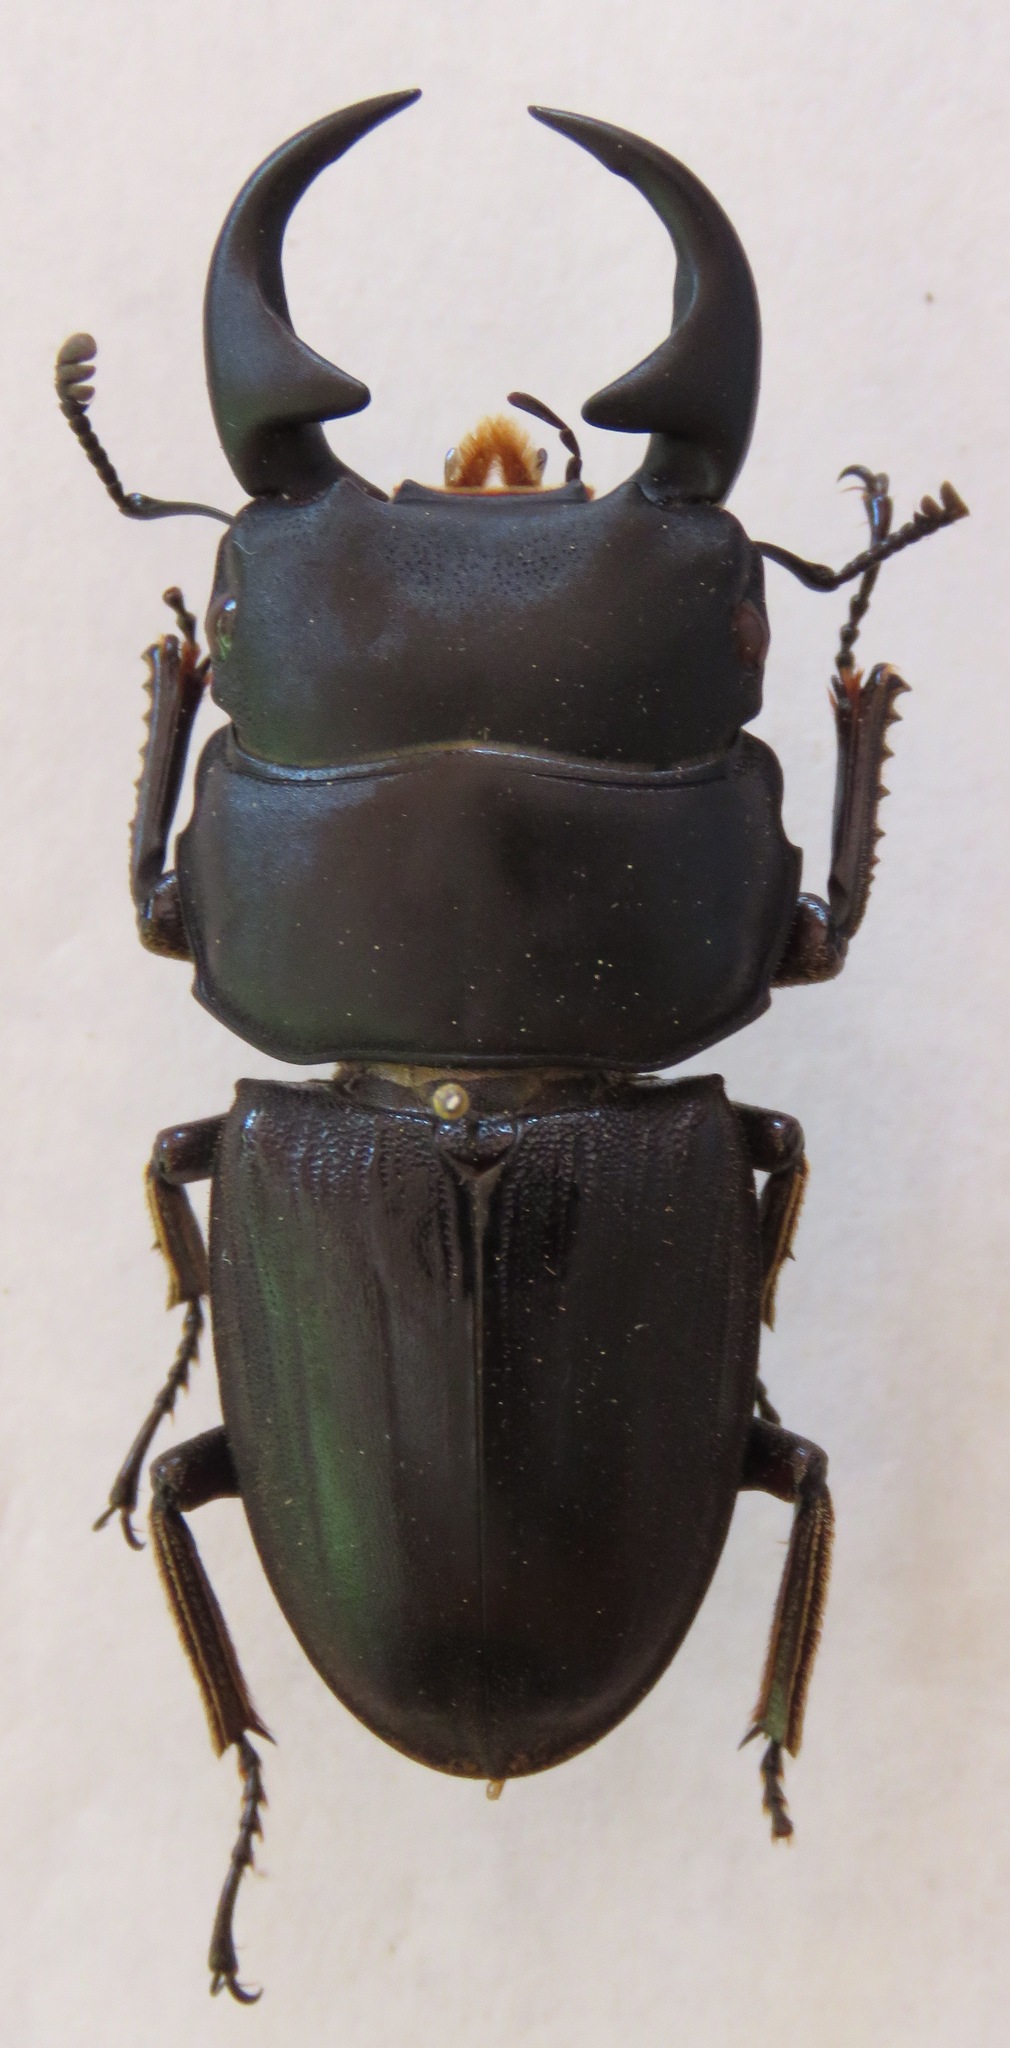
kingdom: Animalia
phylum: Arthropoda
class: Insecta
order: Coleoptera
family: Lucanidae
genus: Dorcus
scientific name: Dorcus ritsemae
